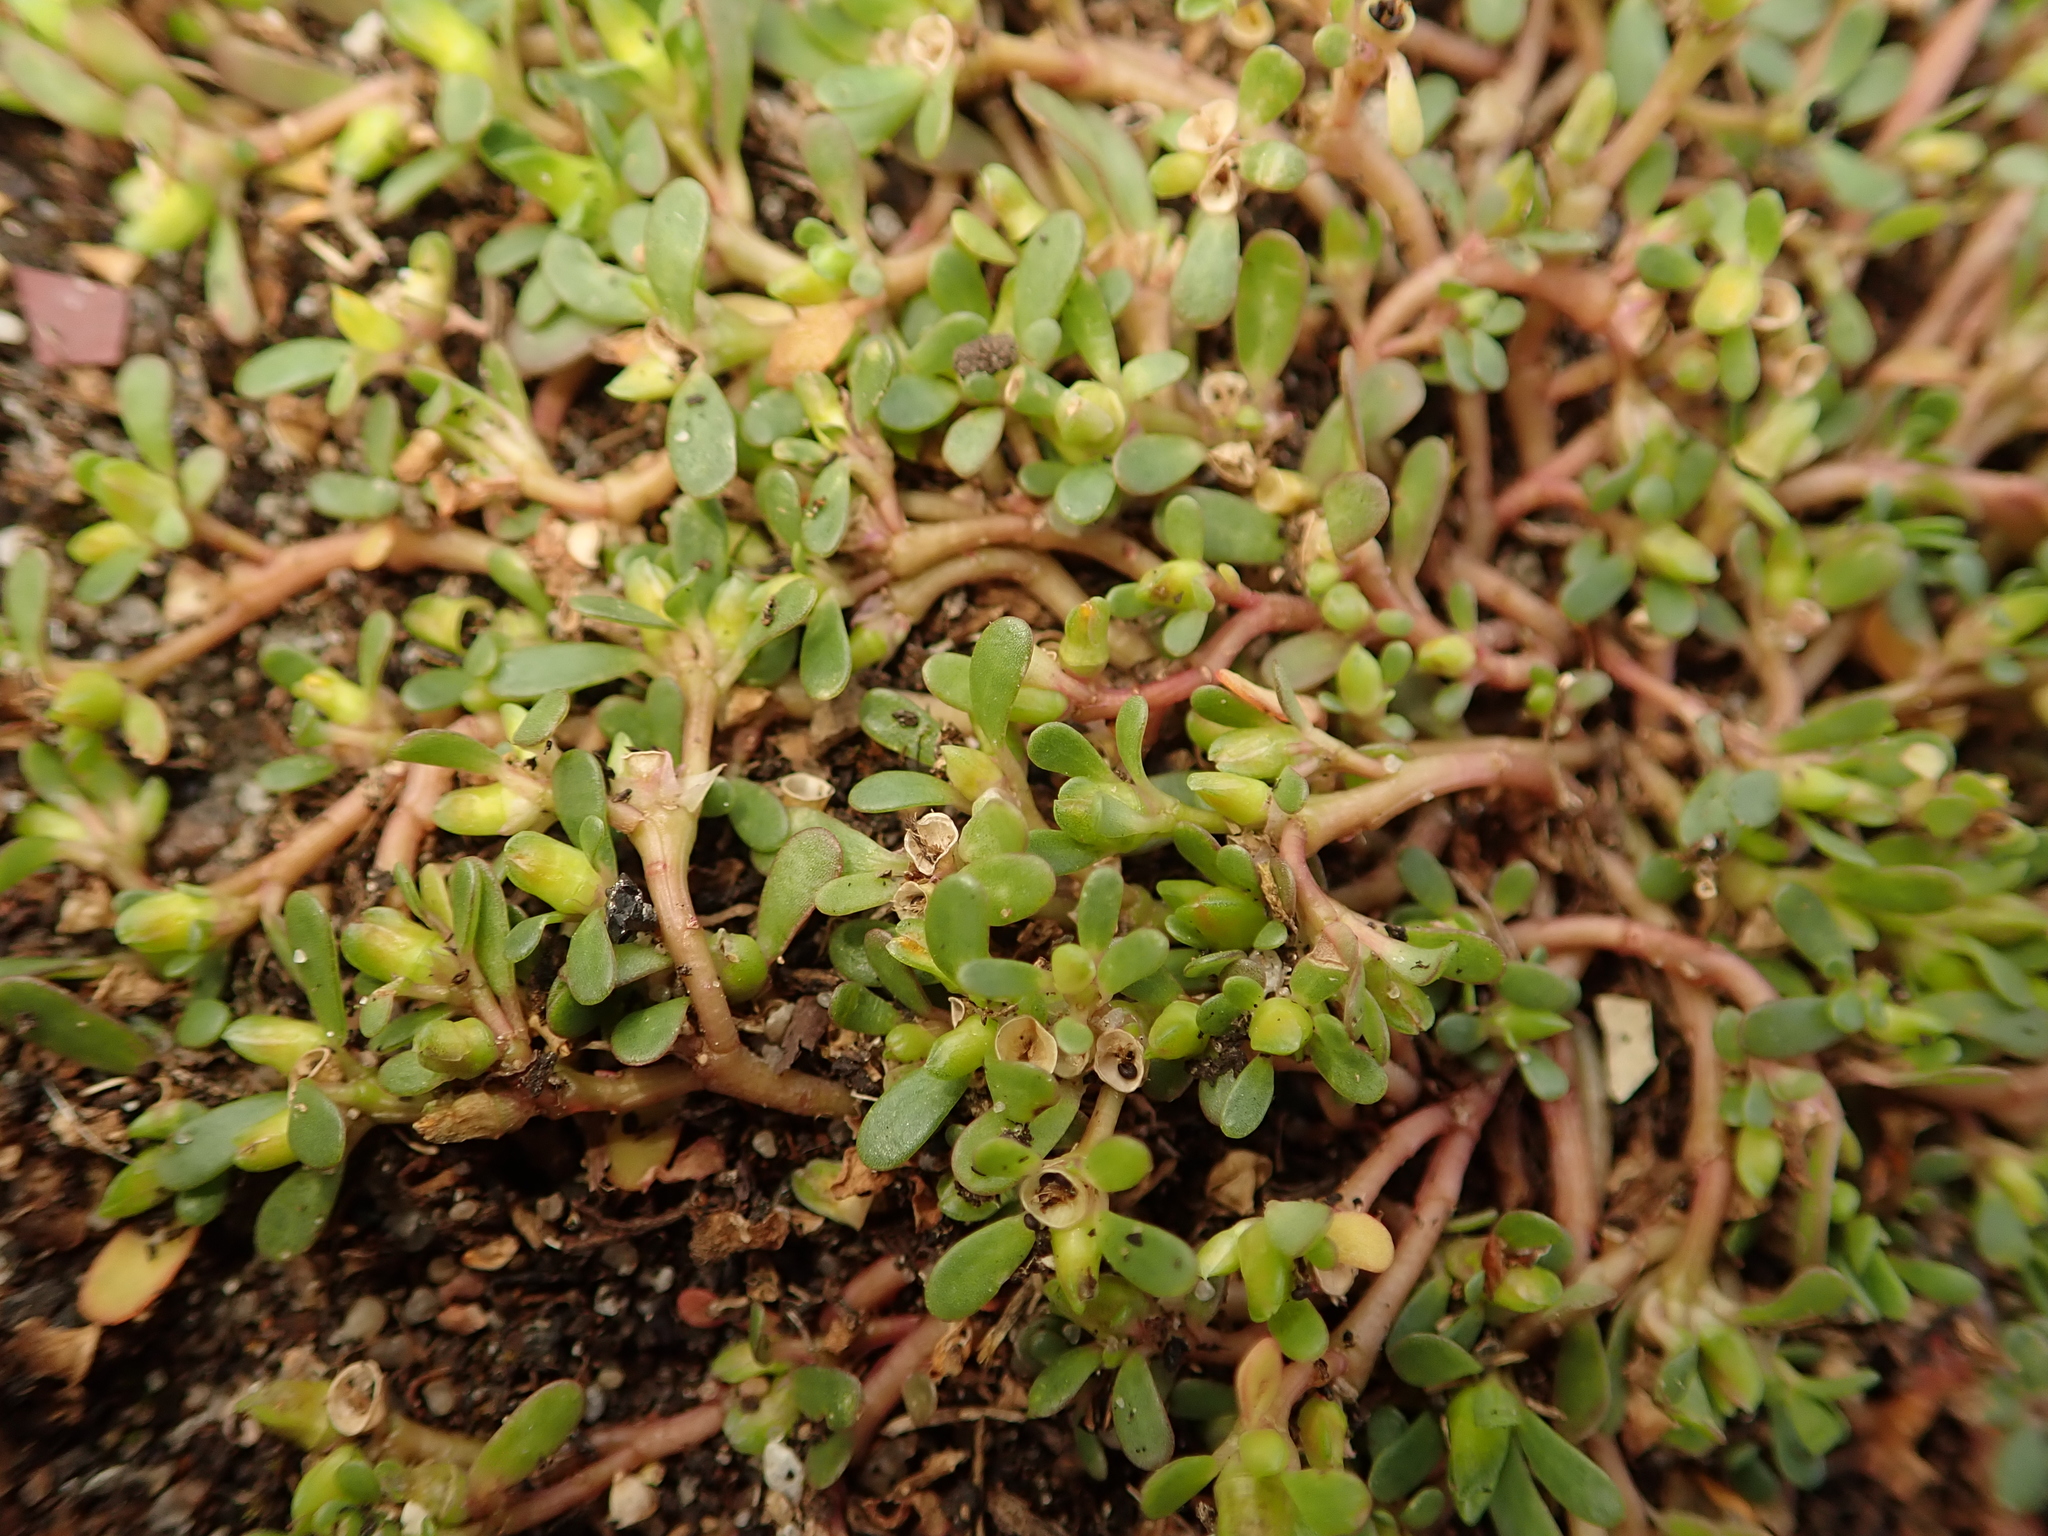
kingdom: Plantae
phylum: Tracheophyta
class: Magnoliopsida
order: Caryophyllales
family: Portulacaceae
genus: Portulaca
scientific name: Portulaca oleracea
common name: Common purslane
